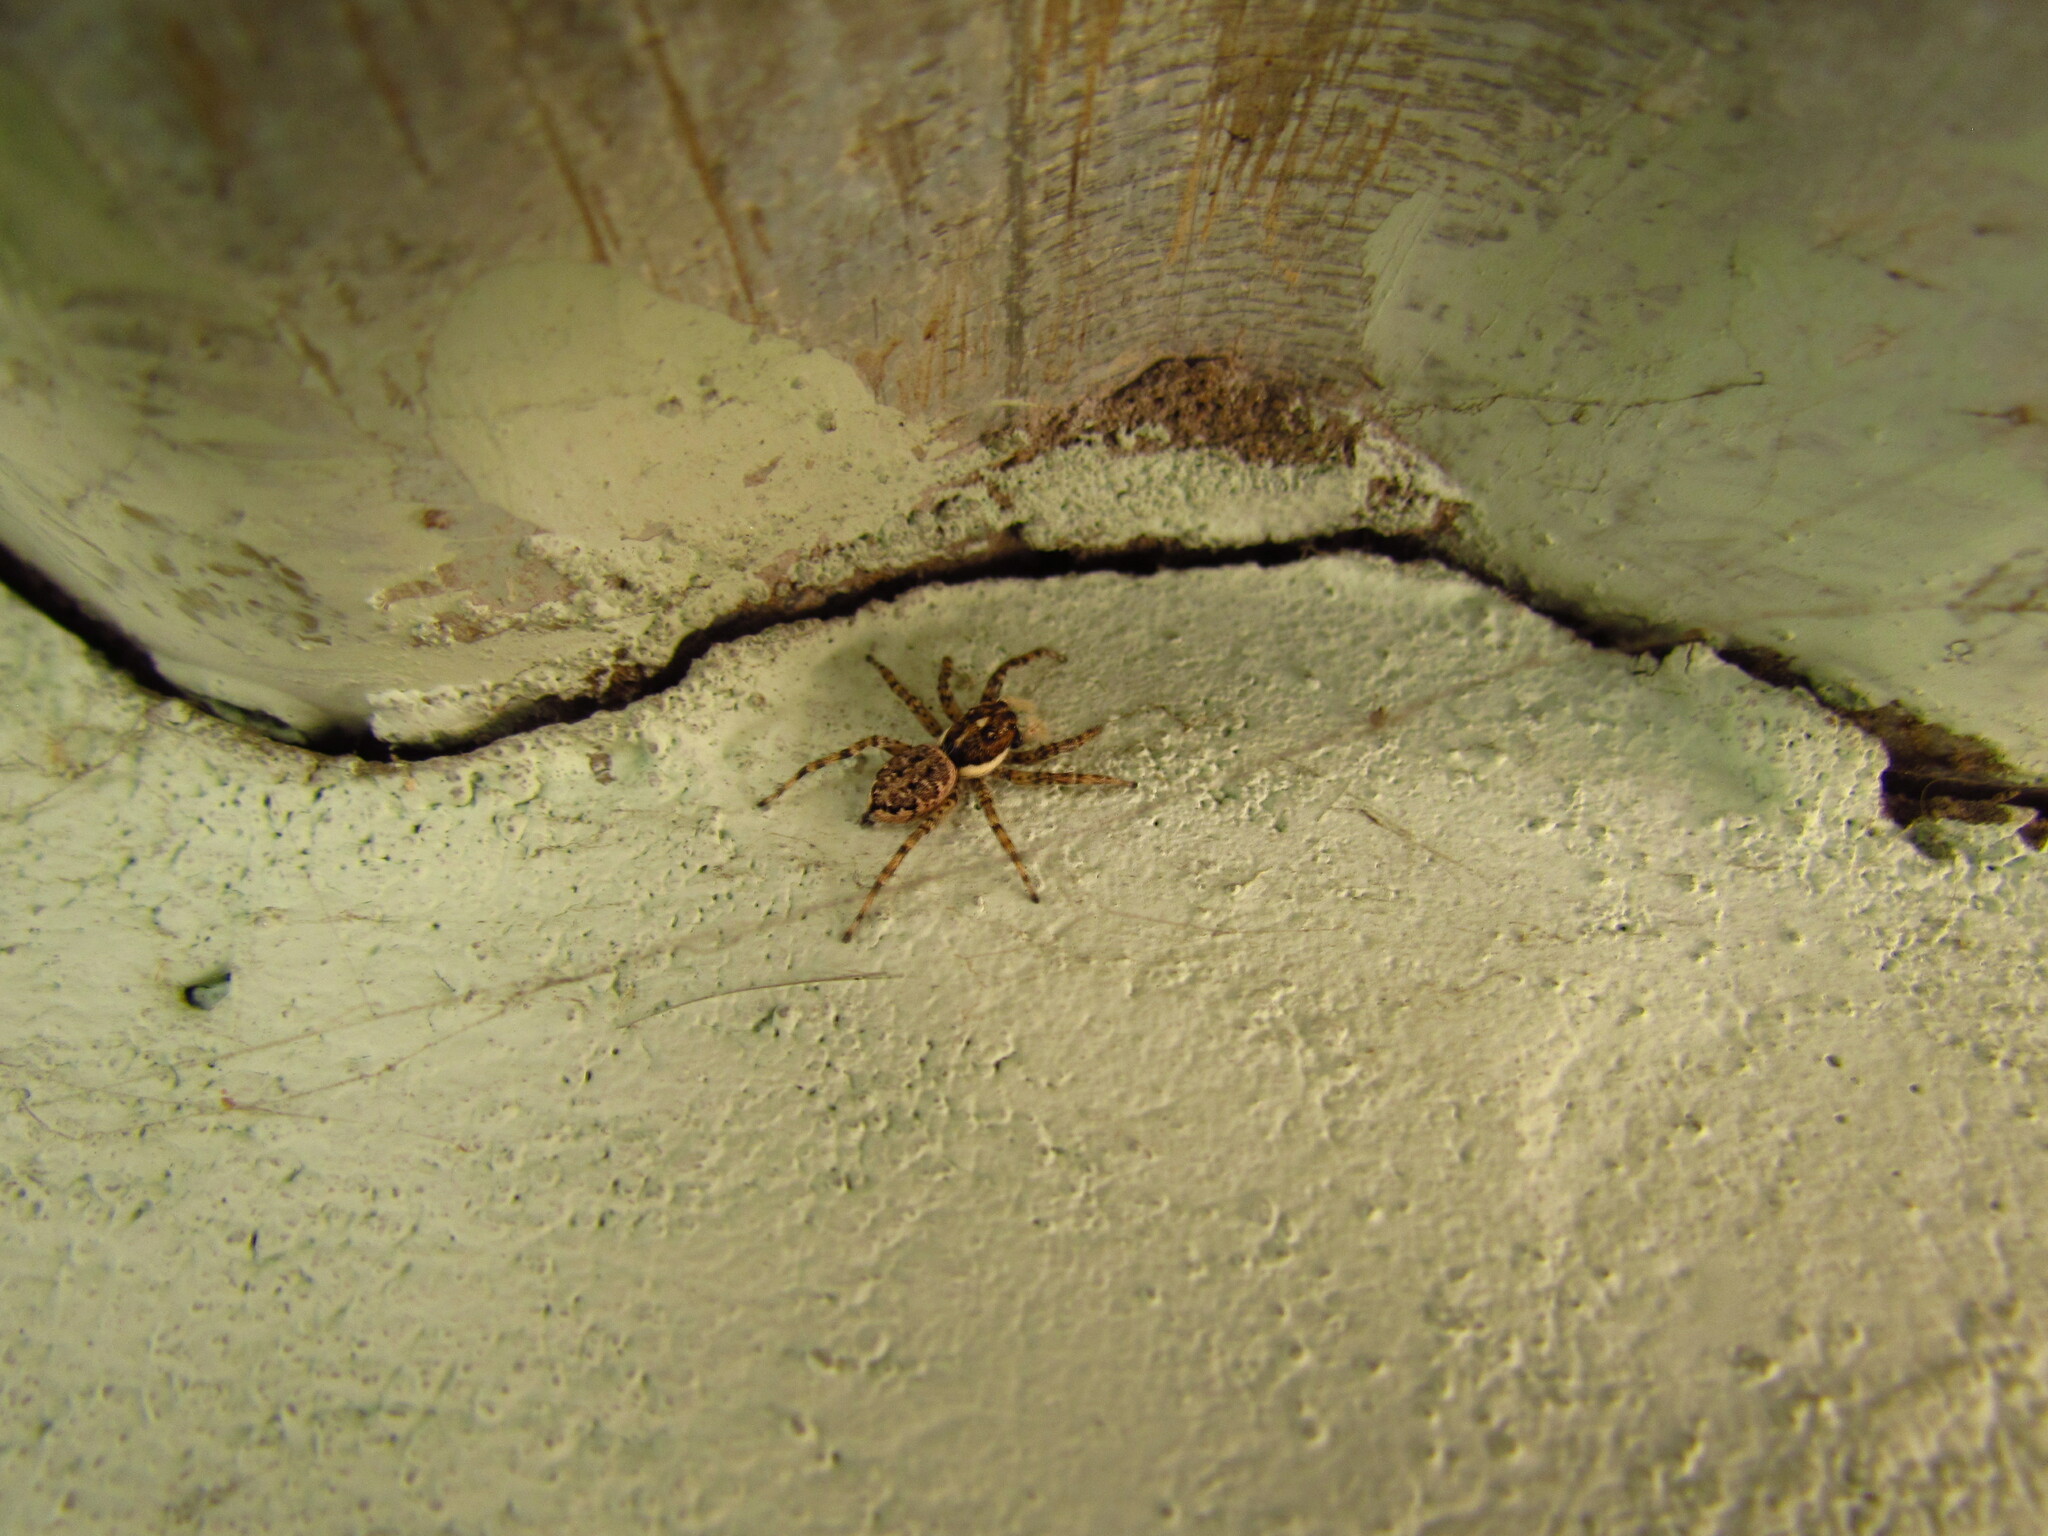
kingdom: Animalia
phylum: Arthropoda
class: Arachnida
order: Araneae
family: Salticidae
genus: Menemerus
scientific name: Menemerus semilimbatus
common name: Jumping spider
